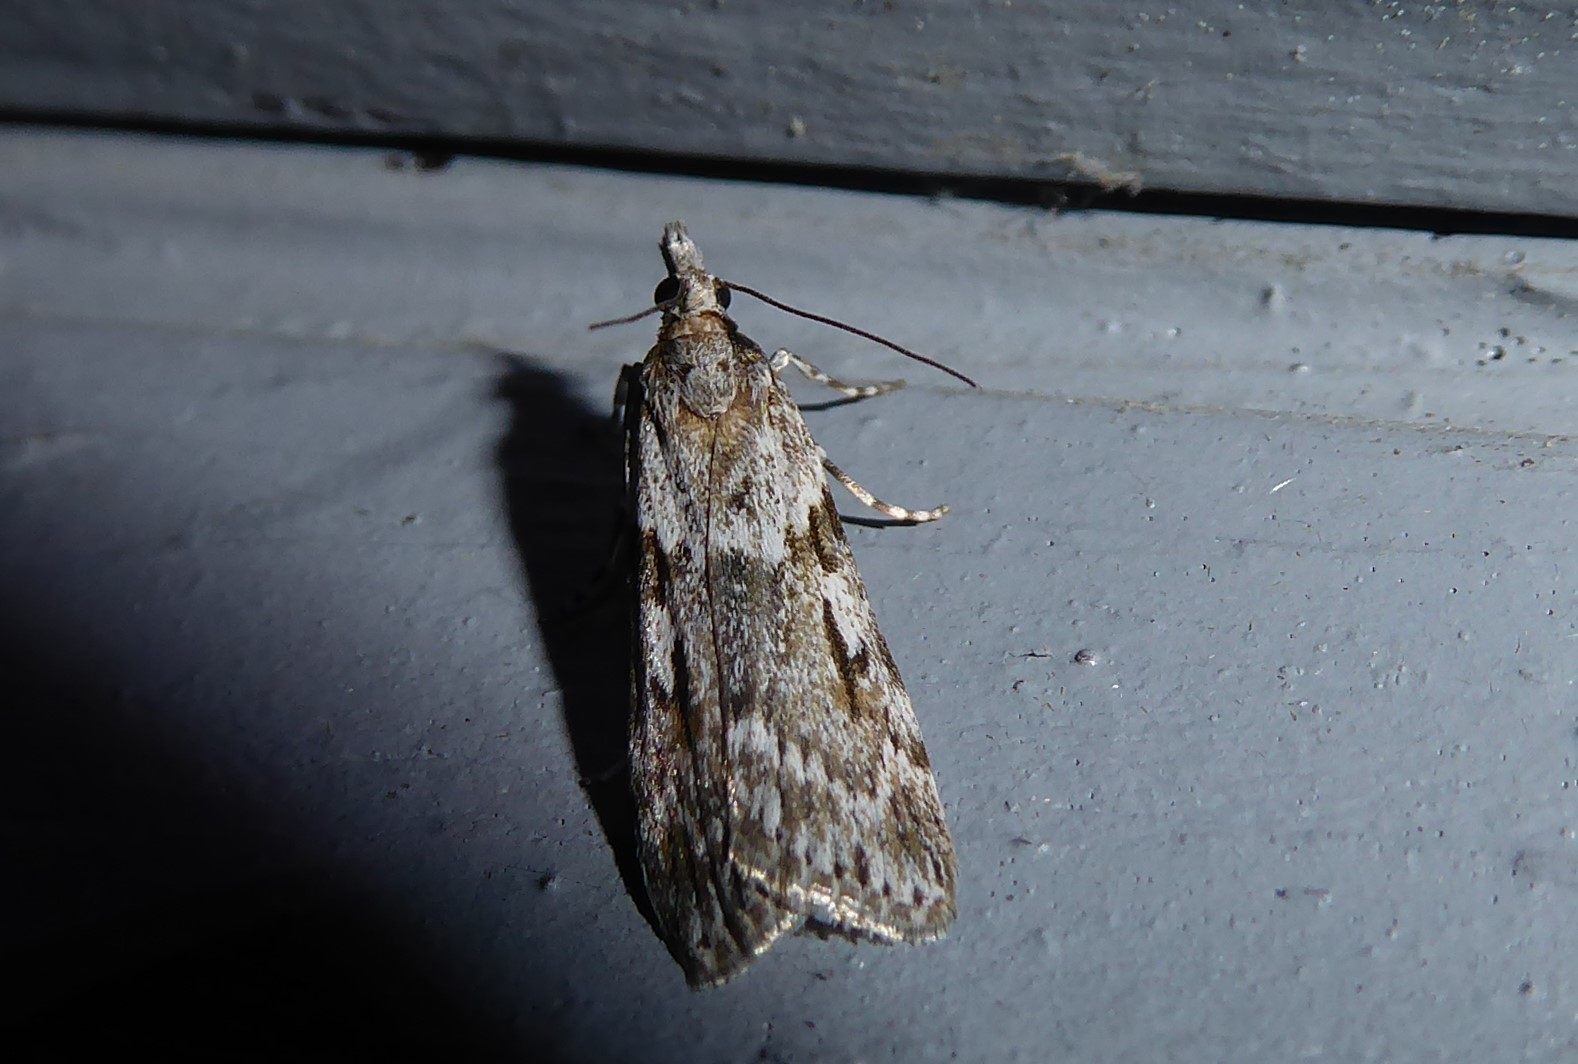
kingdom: Animalia
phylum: Arthropoda
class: Insecta
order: Lepidoptera
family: Crambidae
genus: Scoparia
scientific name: Scoparia halopis
